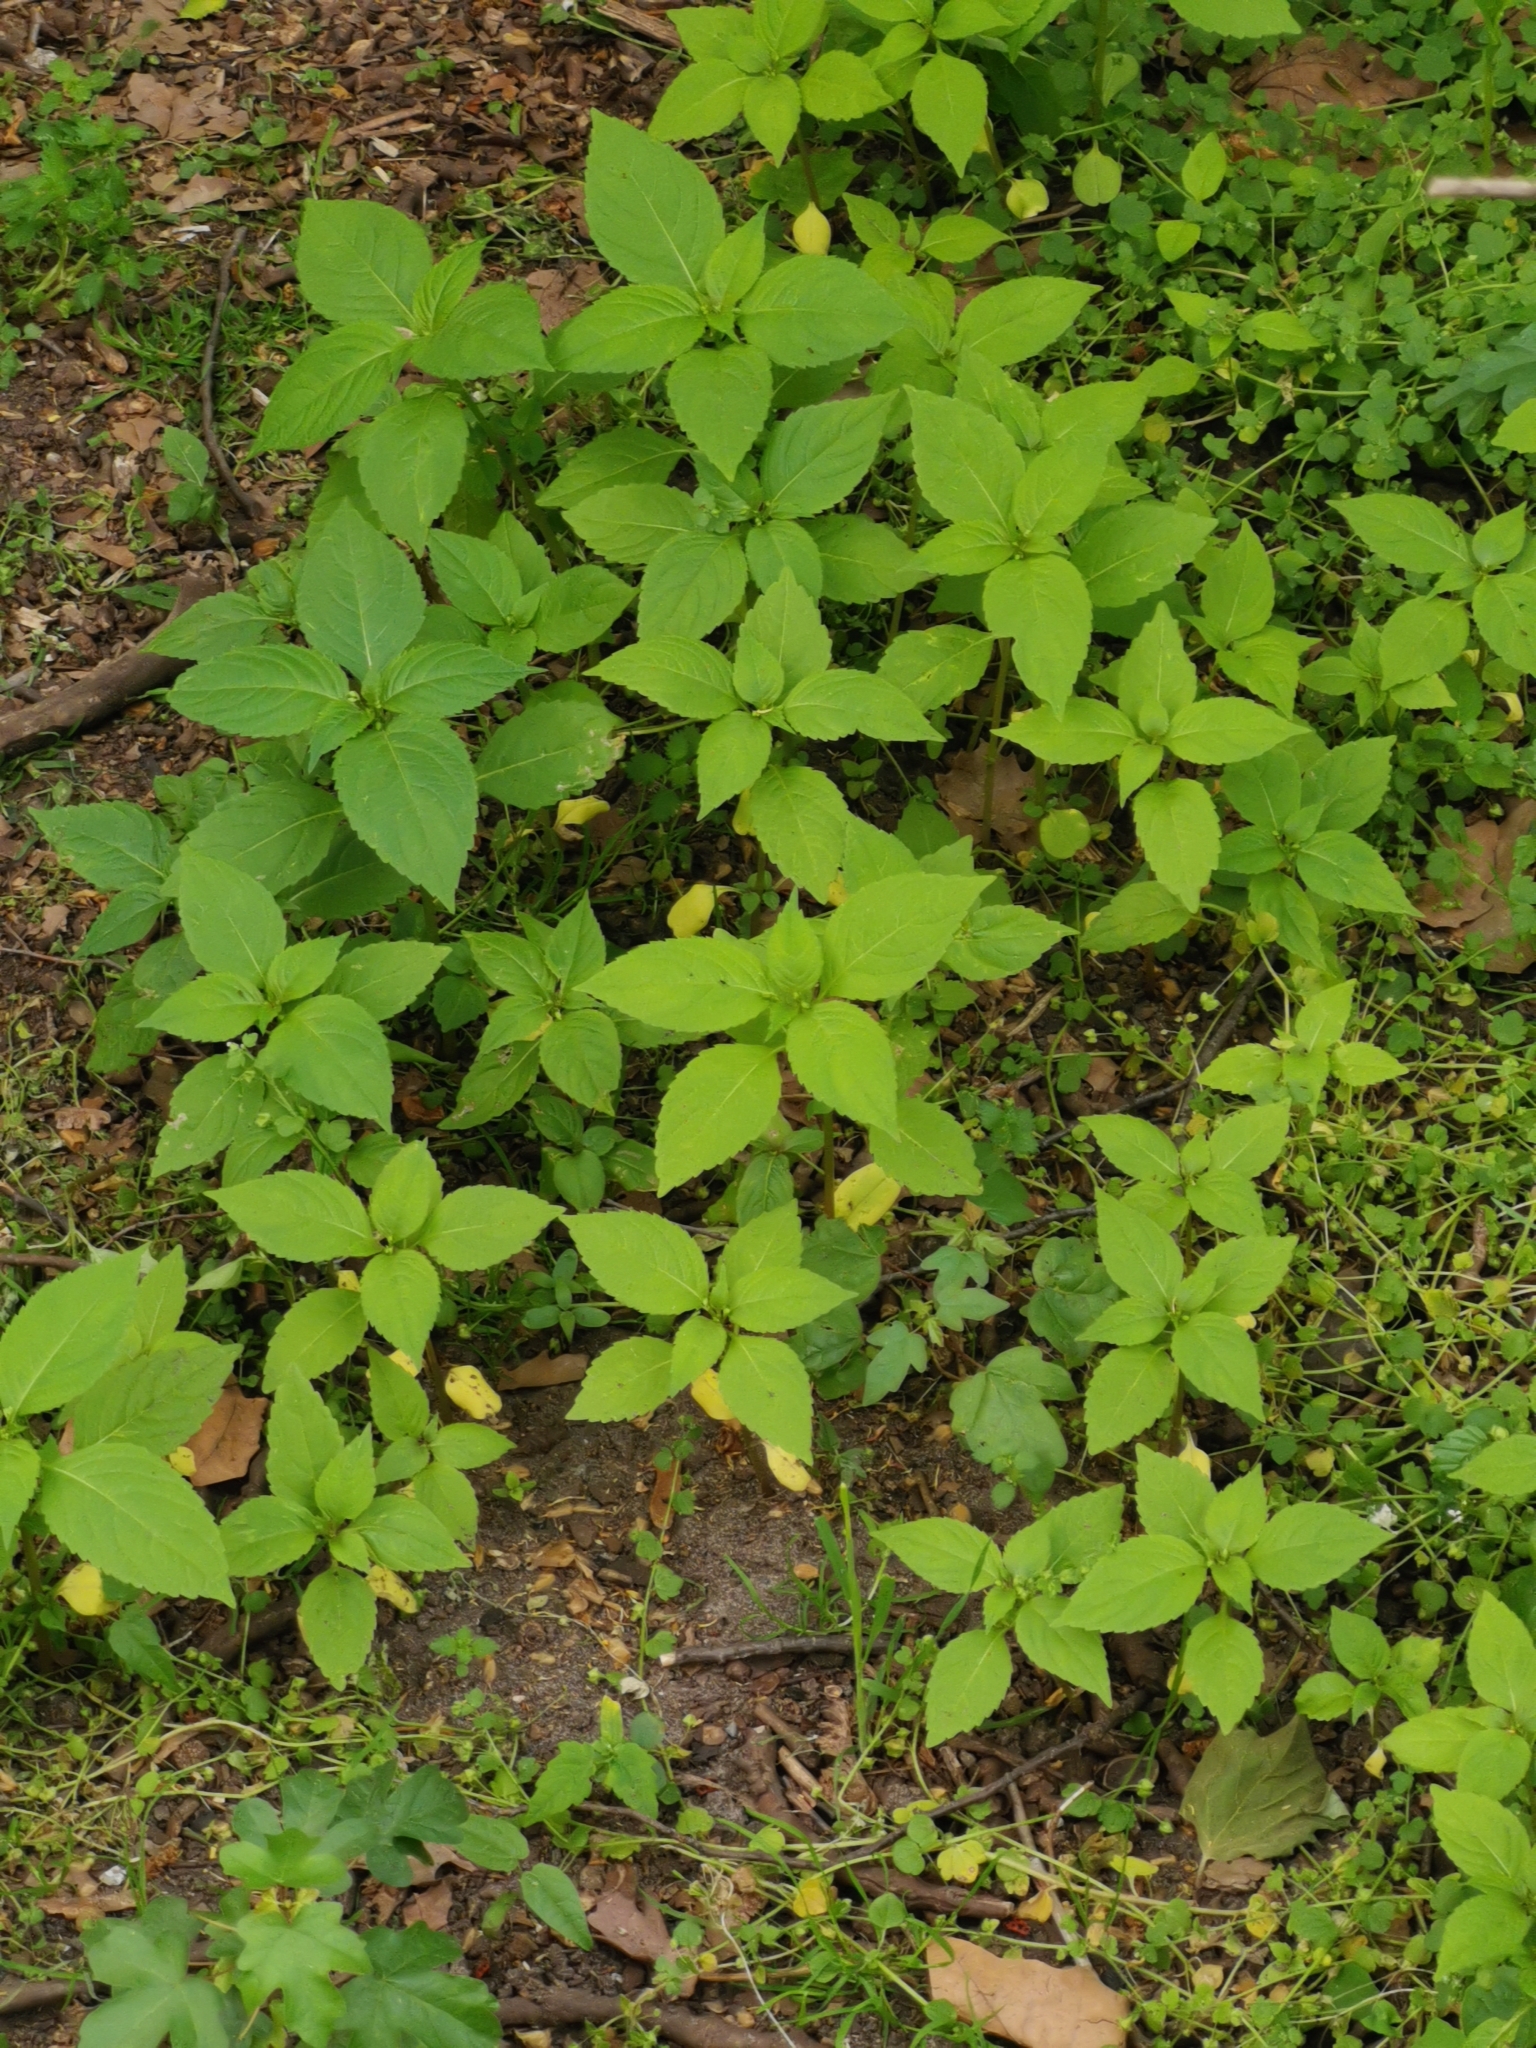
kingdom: Plantae
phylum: Tracheophyta
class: Magnoliopsida
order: Ericales
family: Balsaminaceae
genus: Impatiens
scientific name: Impatiens parviflora
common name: Small balsam
